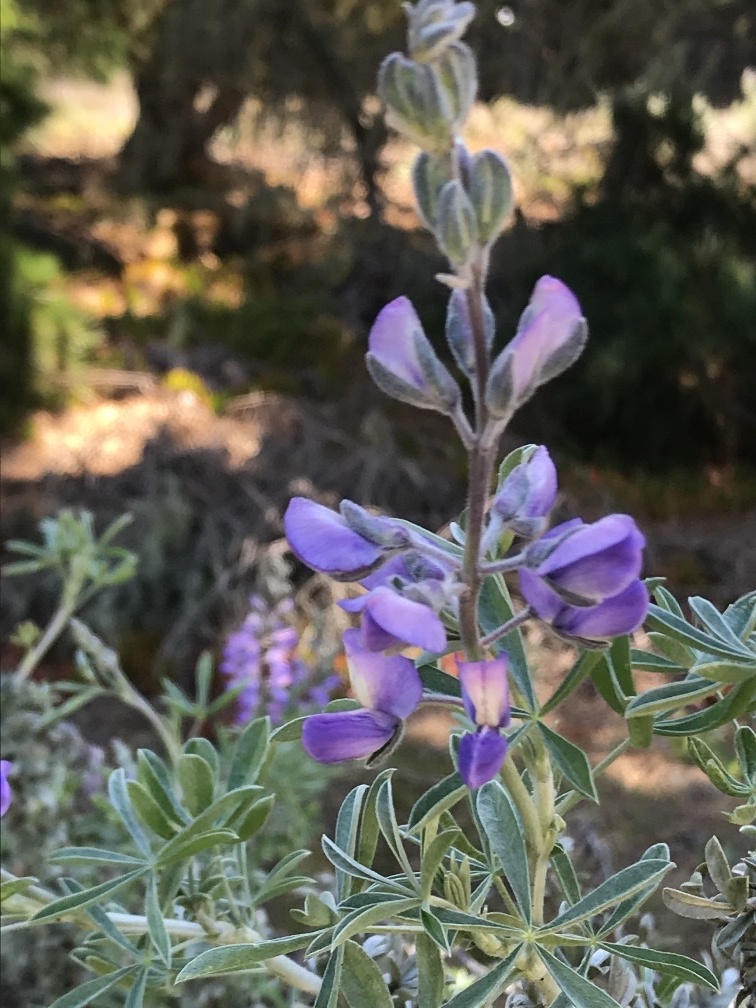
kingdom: Plantae
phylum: Tracheophyta
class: Magnoliopsida
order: Fabales
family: Fabaceae
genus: Lupinus
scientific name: Lupinus chamissonis
